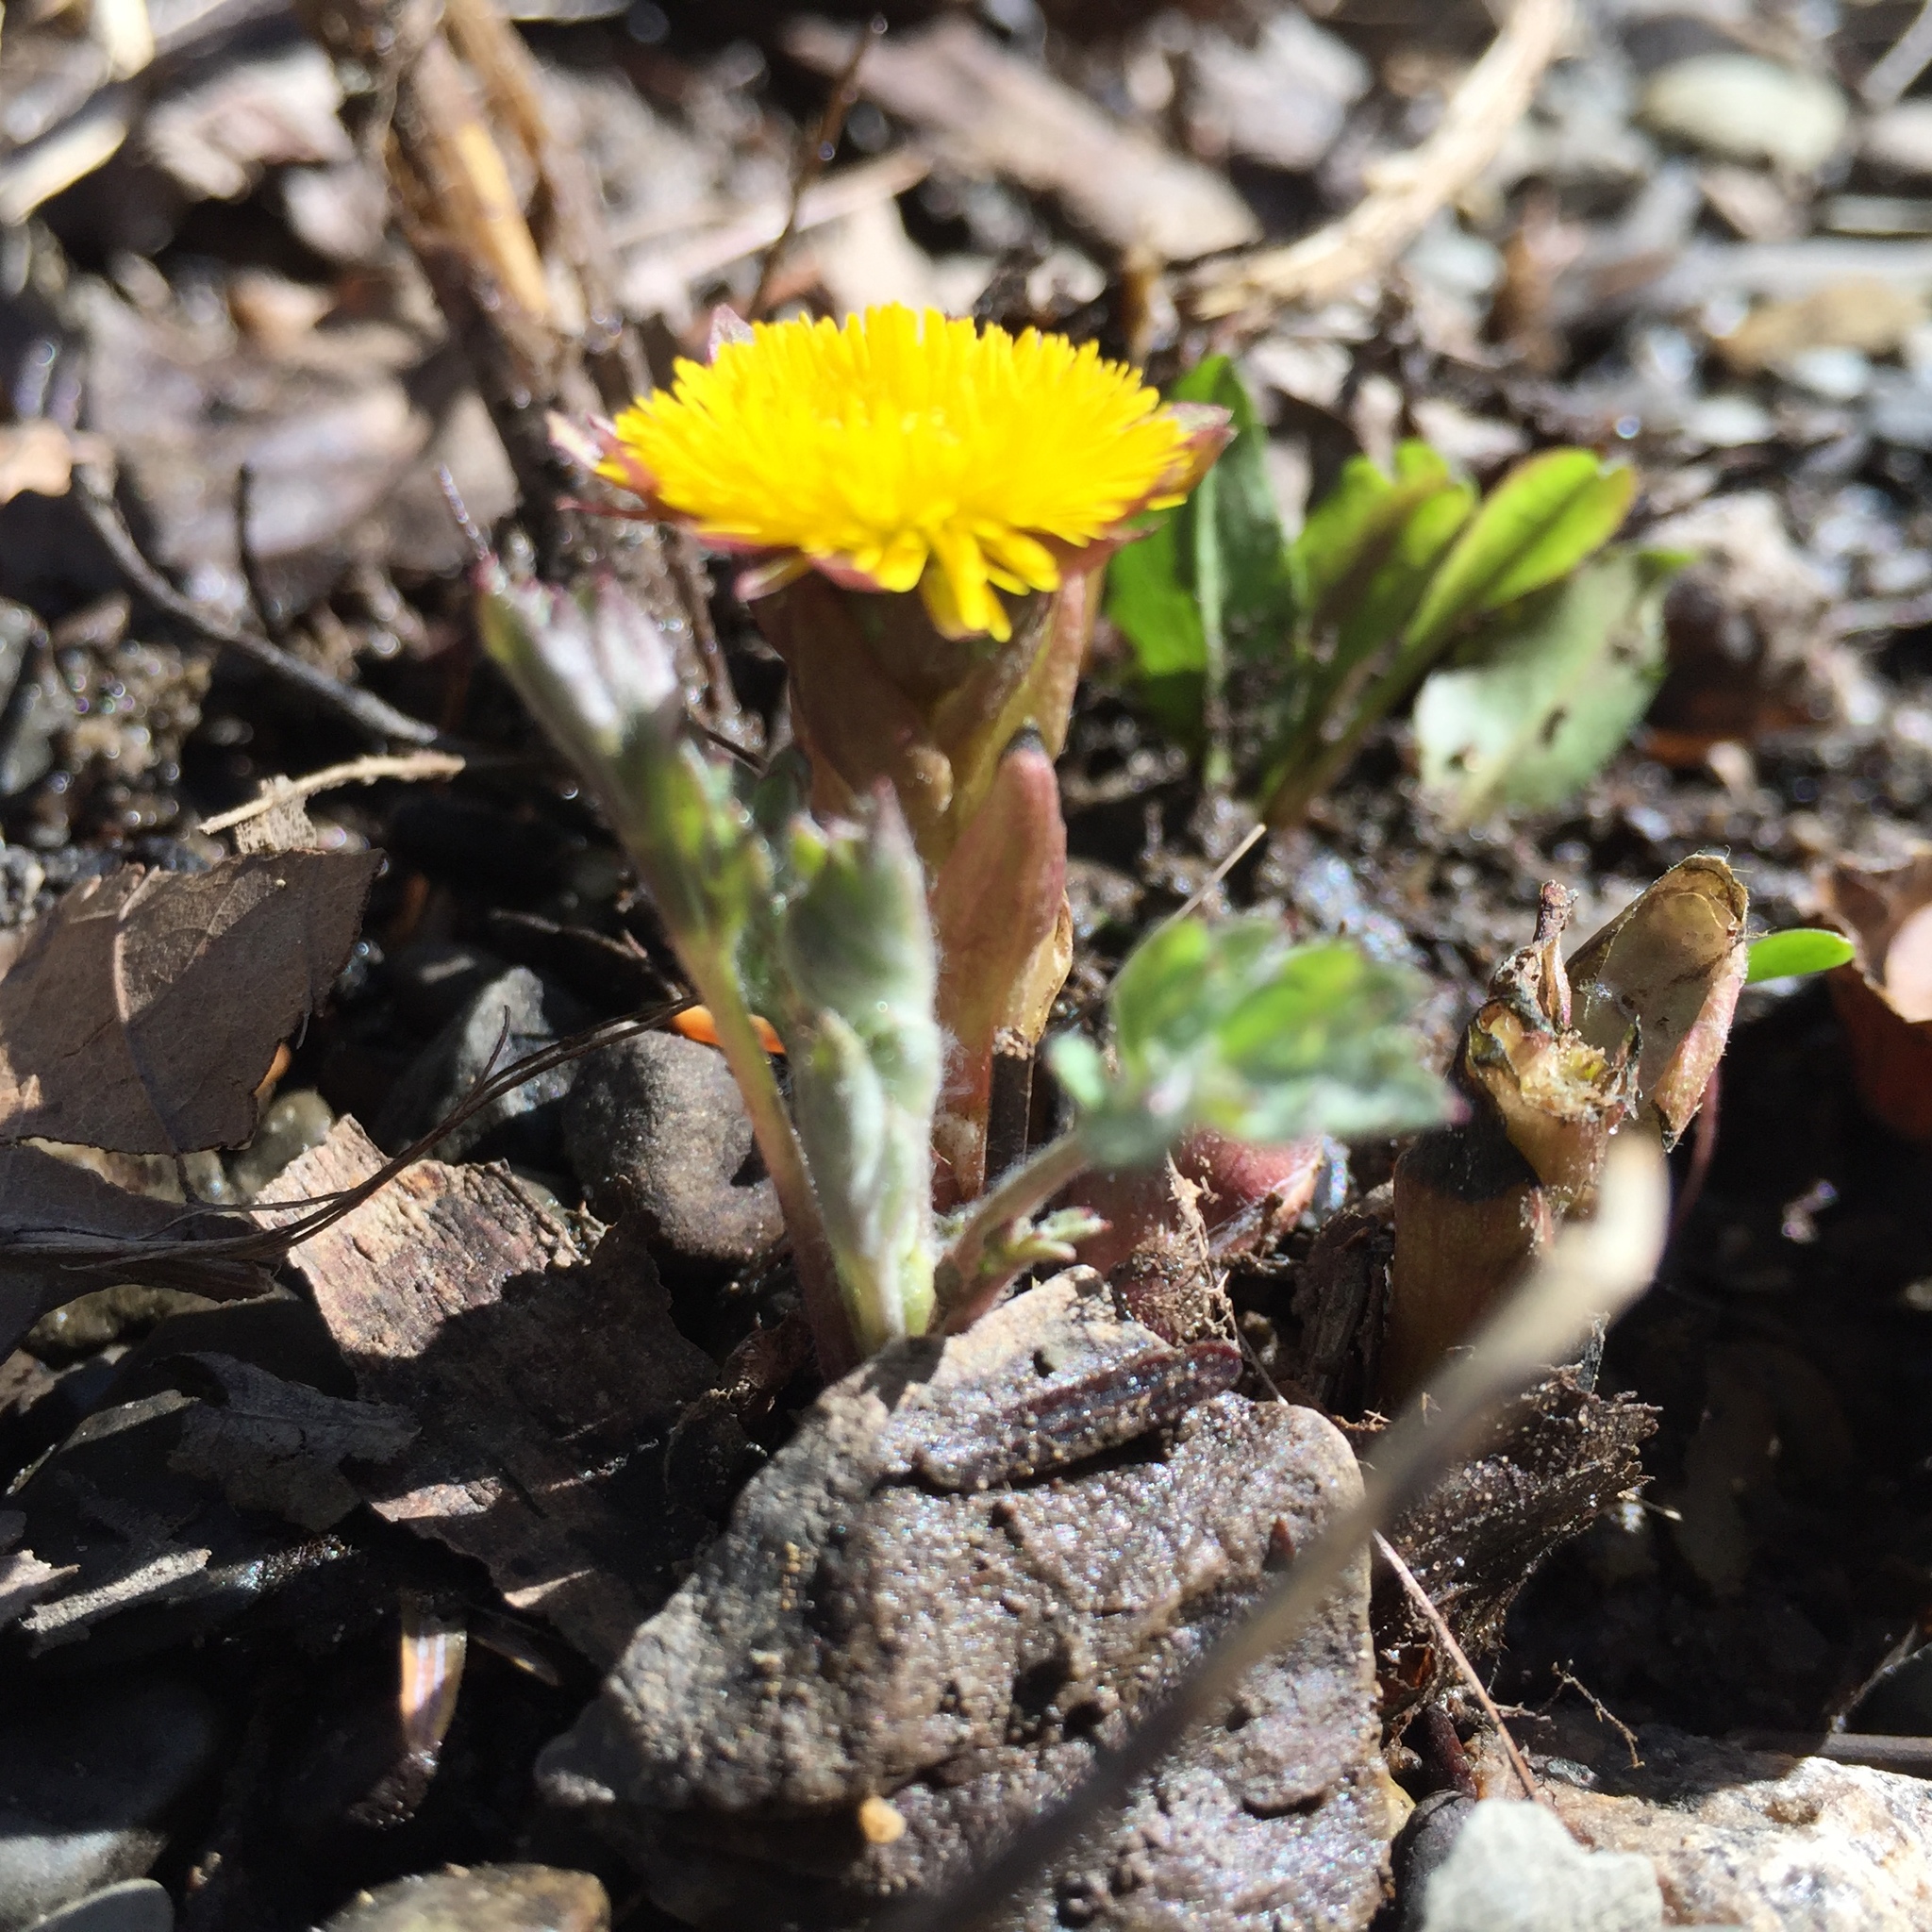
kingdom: Plantae
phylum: Tracheophyta
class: Magnoliopsida
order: Asterales
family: Asteraceae
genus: Tussilago
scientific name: Tussilago farfara
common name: Coltsfoot
